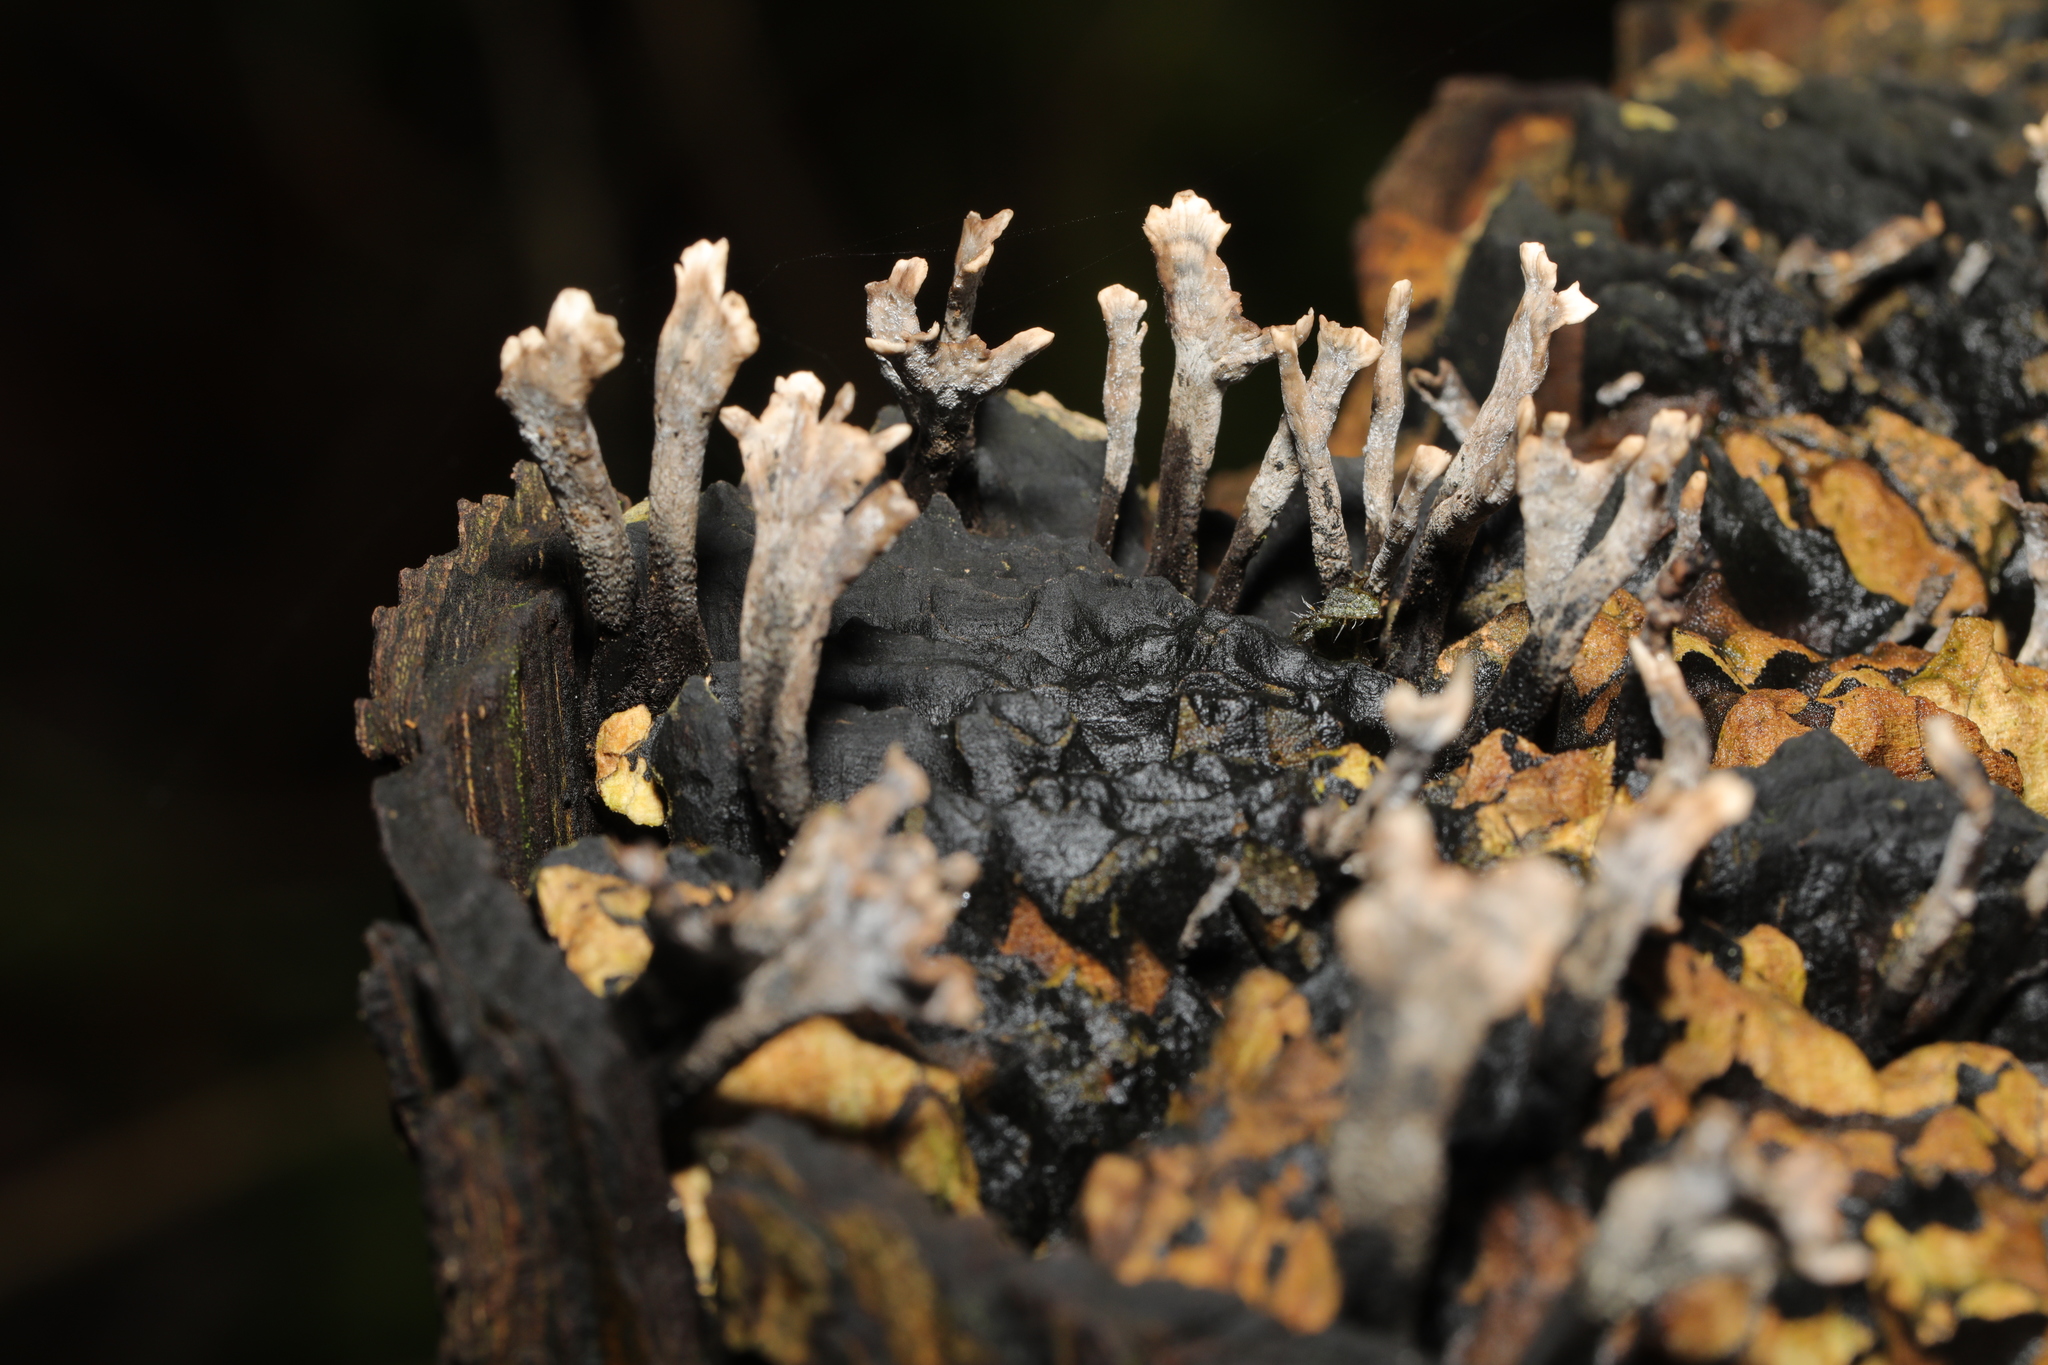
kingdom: Fungi
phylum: Ascomycota
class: Sordariomycetes
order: Xylariales
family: Xylariaceae
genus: Xylaria
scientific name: Xylaria hypoxylon
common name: Candle-snuff fungus
